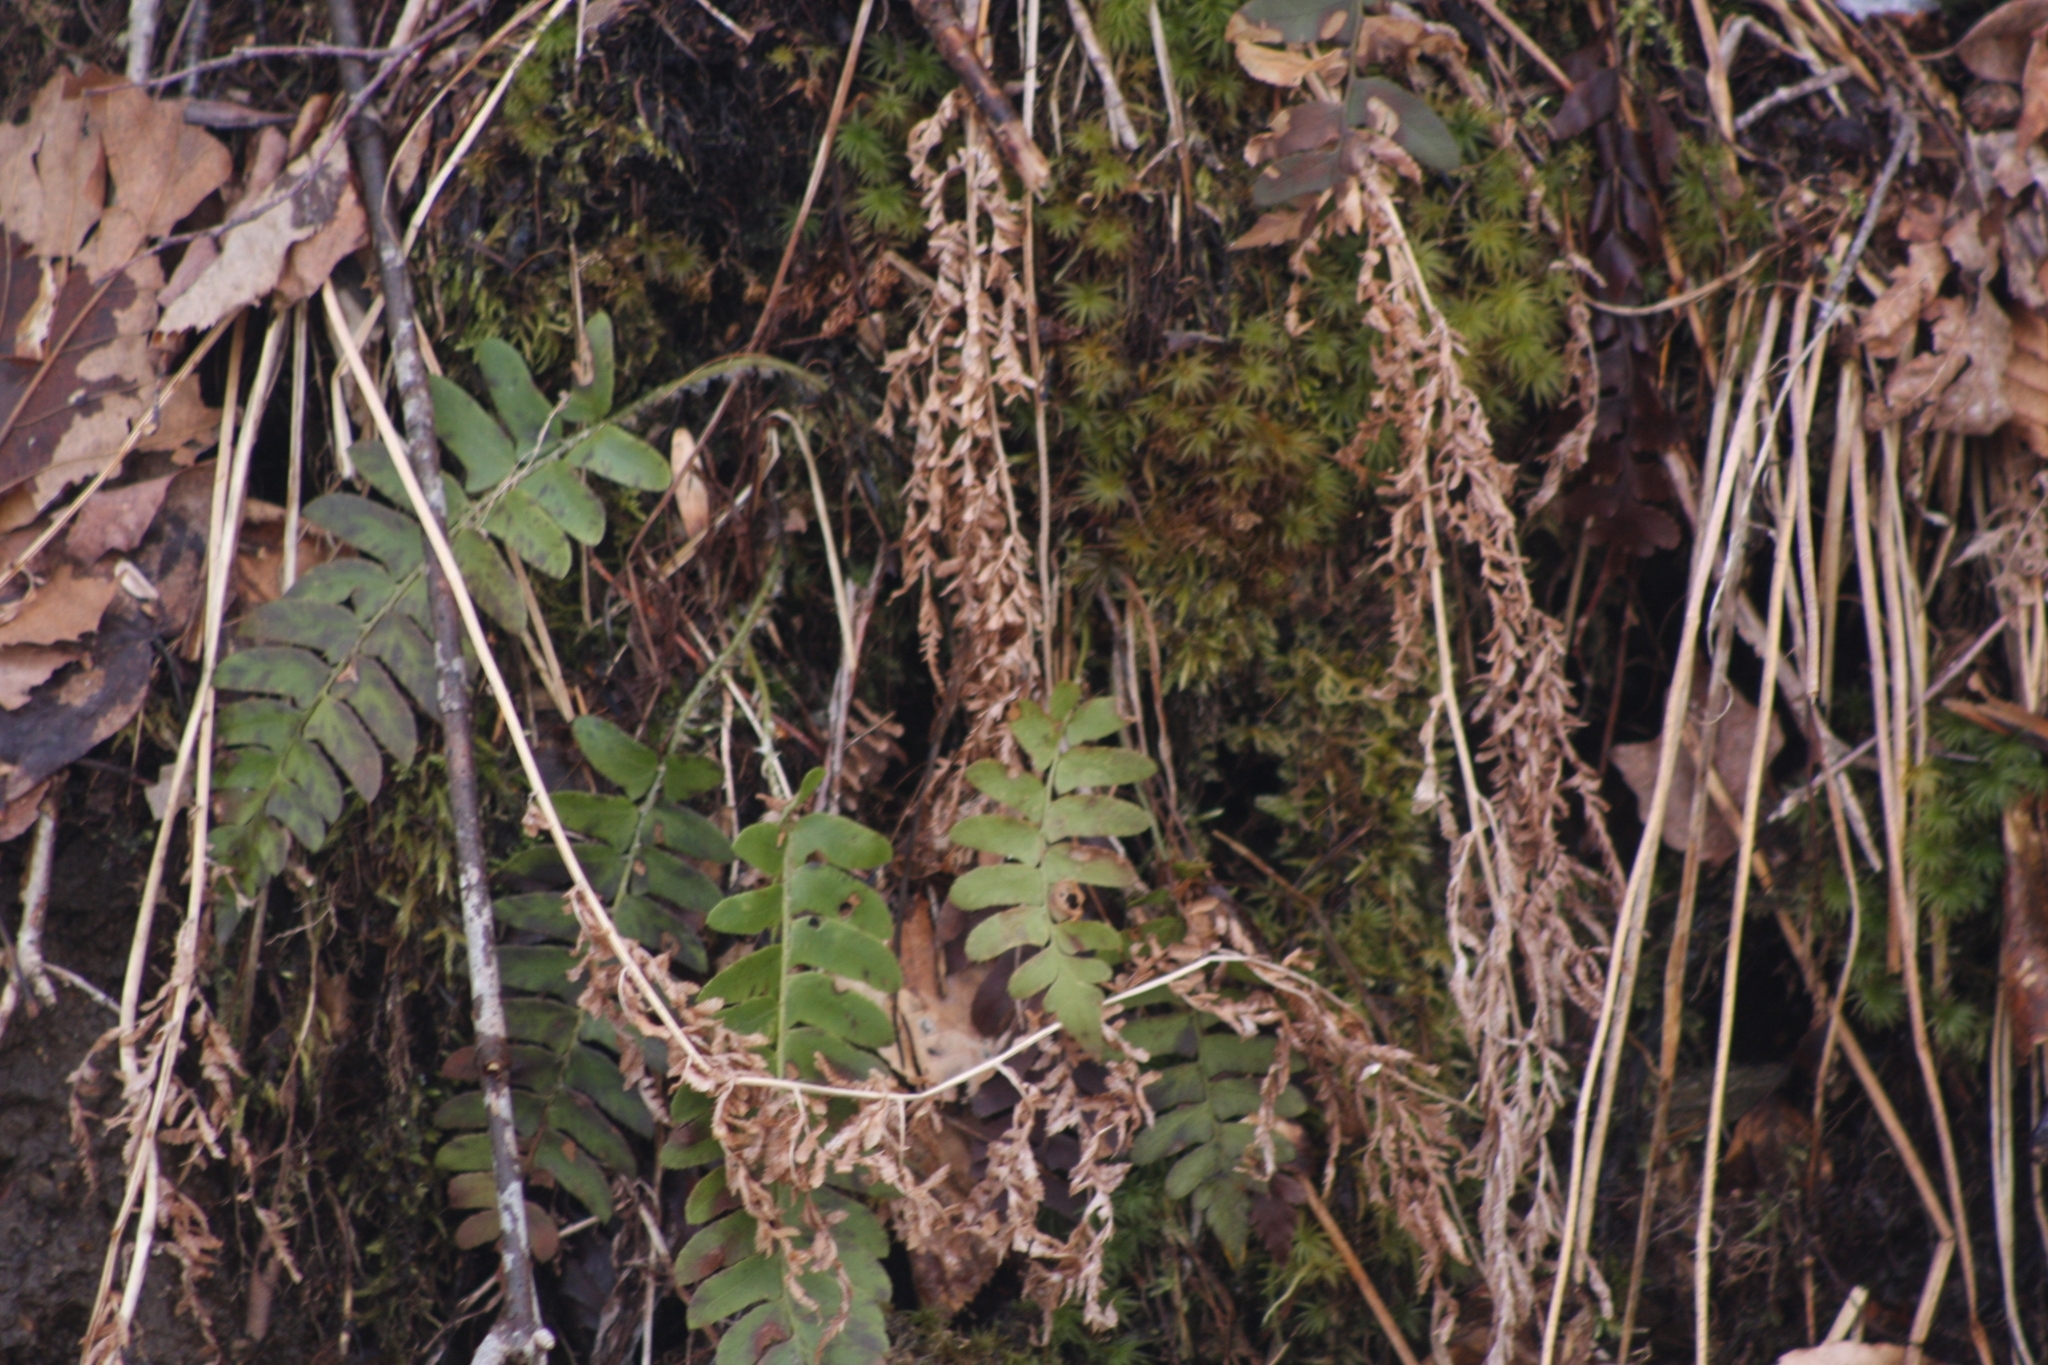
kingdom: Plantae
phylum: Tracheophyta
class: Polypodiopsida
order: Polypodiales
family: Dryopteridaceae
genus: Polystichum
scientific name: Polystichum acrostichoides
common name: Christmas fern
